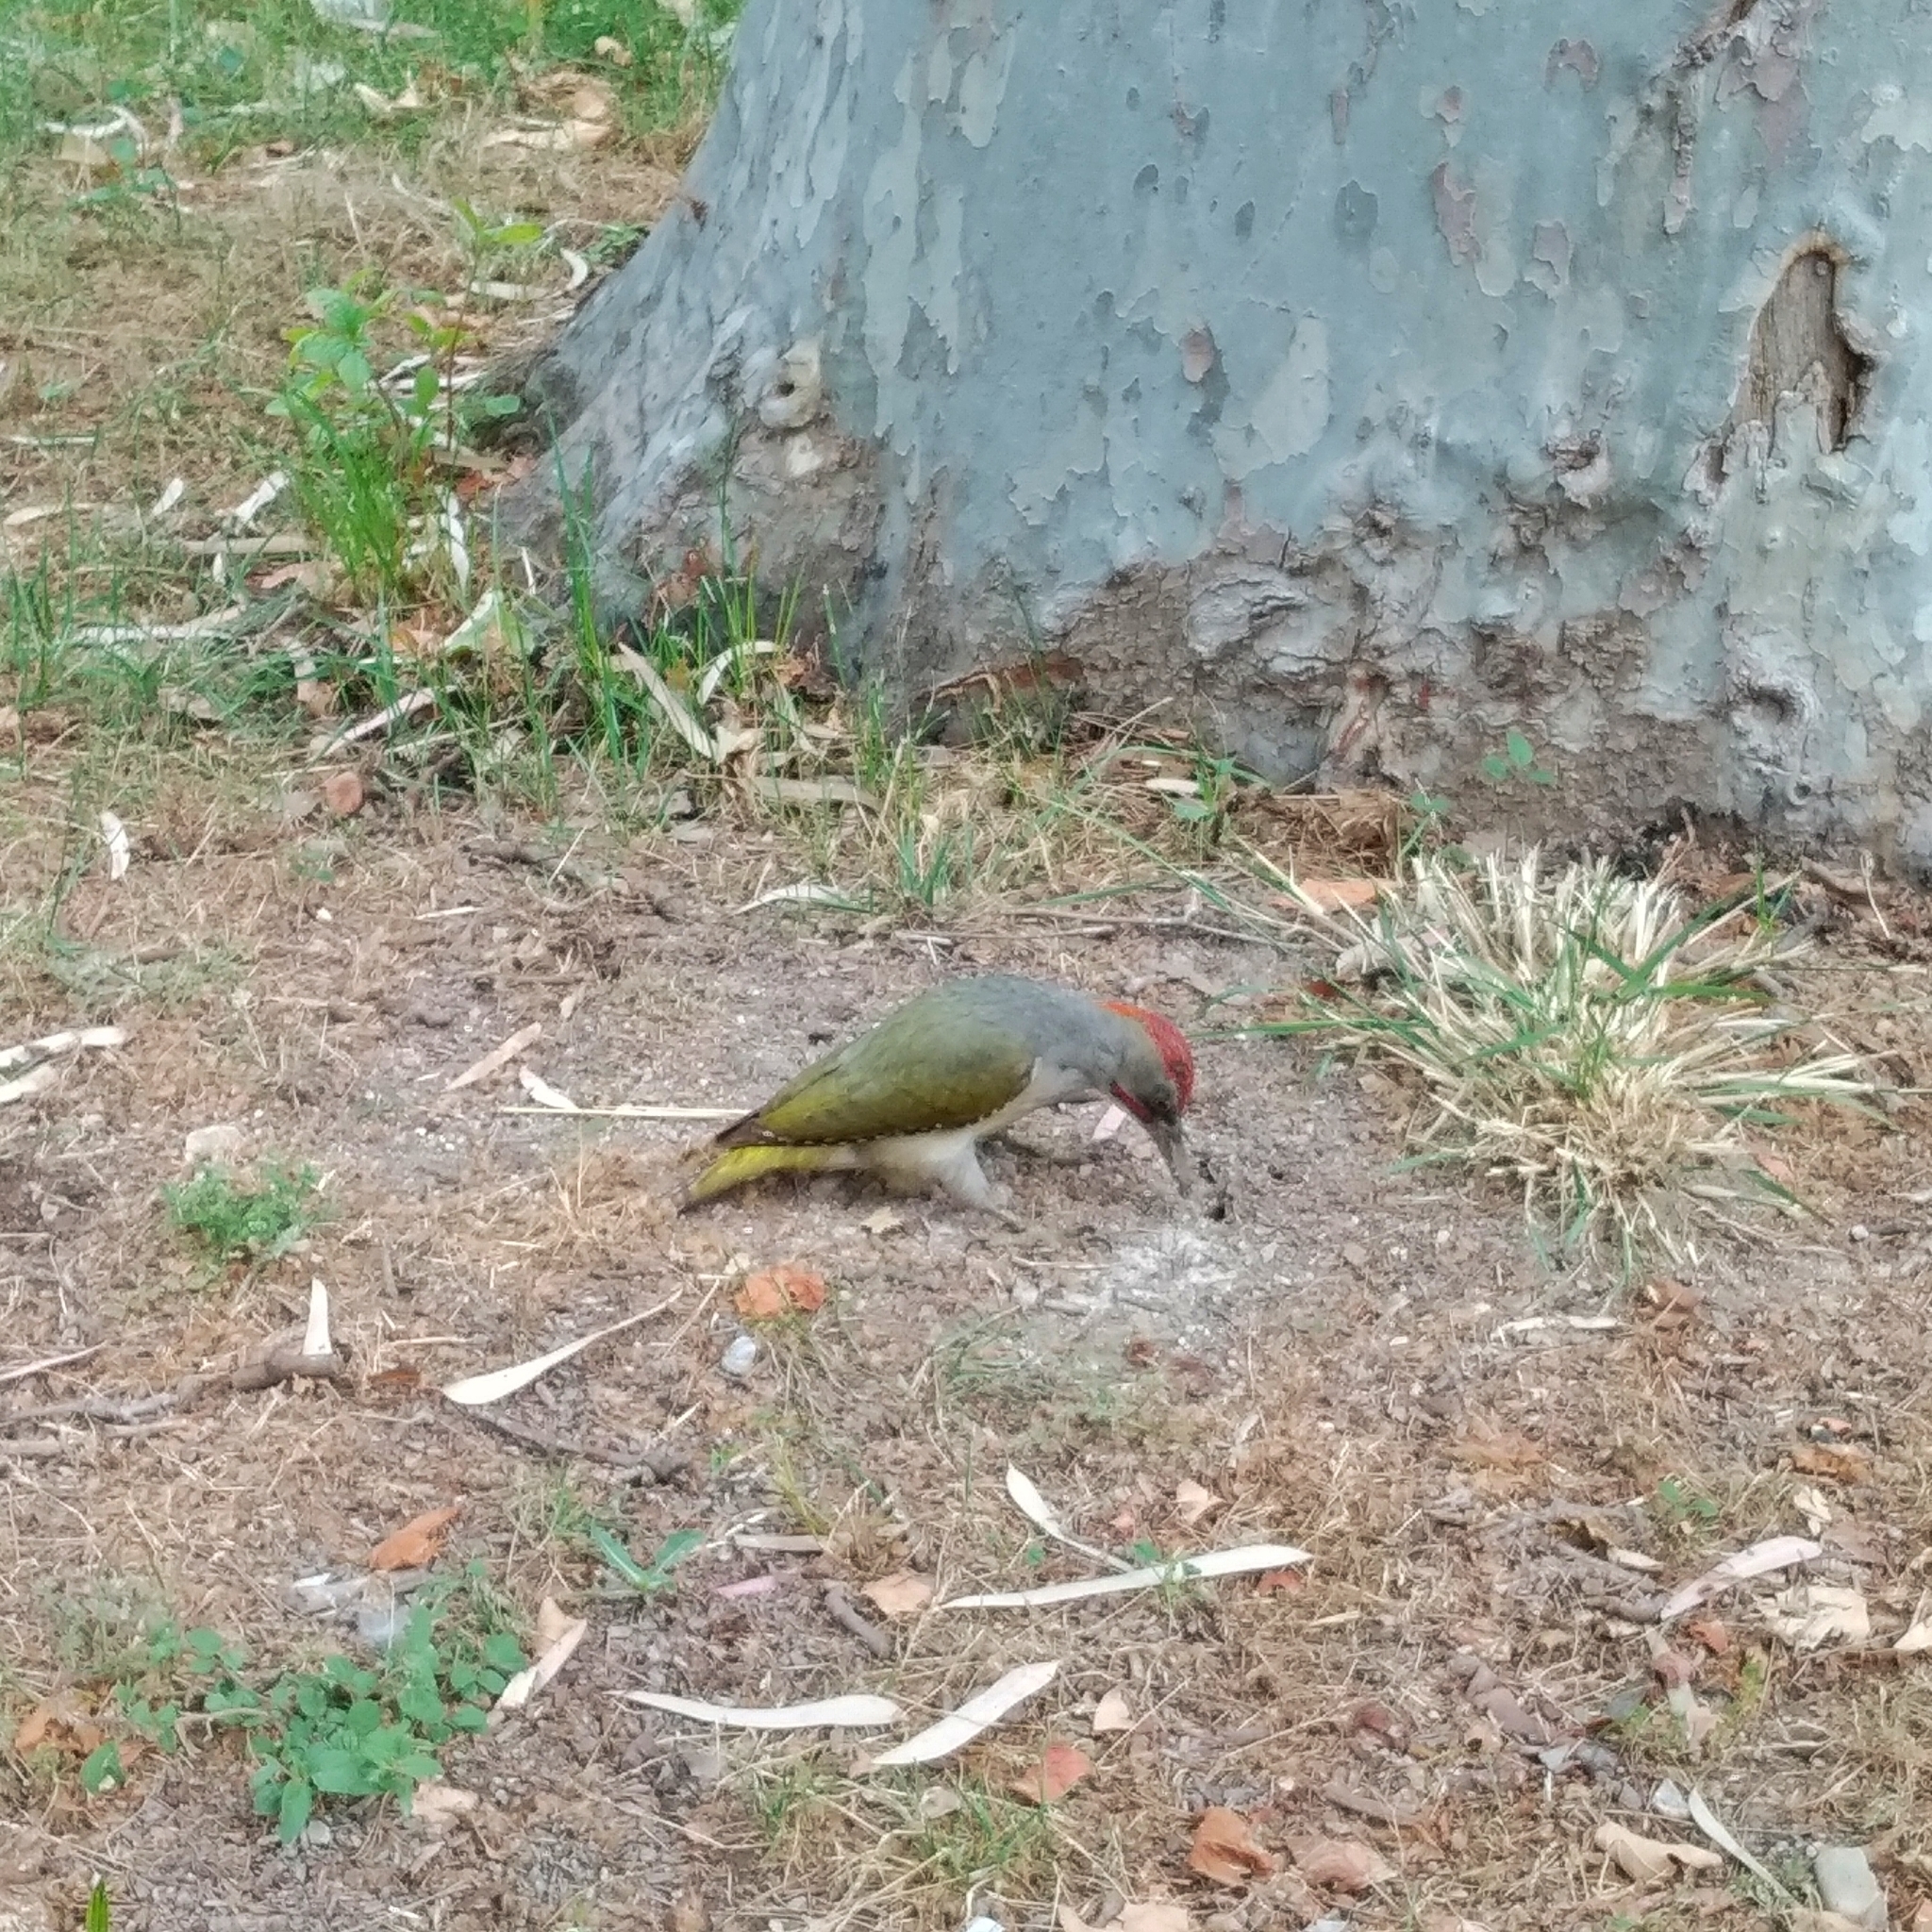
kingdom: Animalia
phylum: Chordata
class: Aves
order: Piciformes
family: Picidae
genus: Picus
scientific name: Picus sharpei
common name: Iberian green woodpecker
